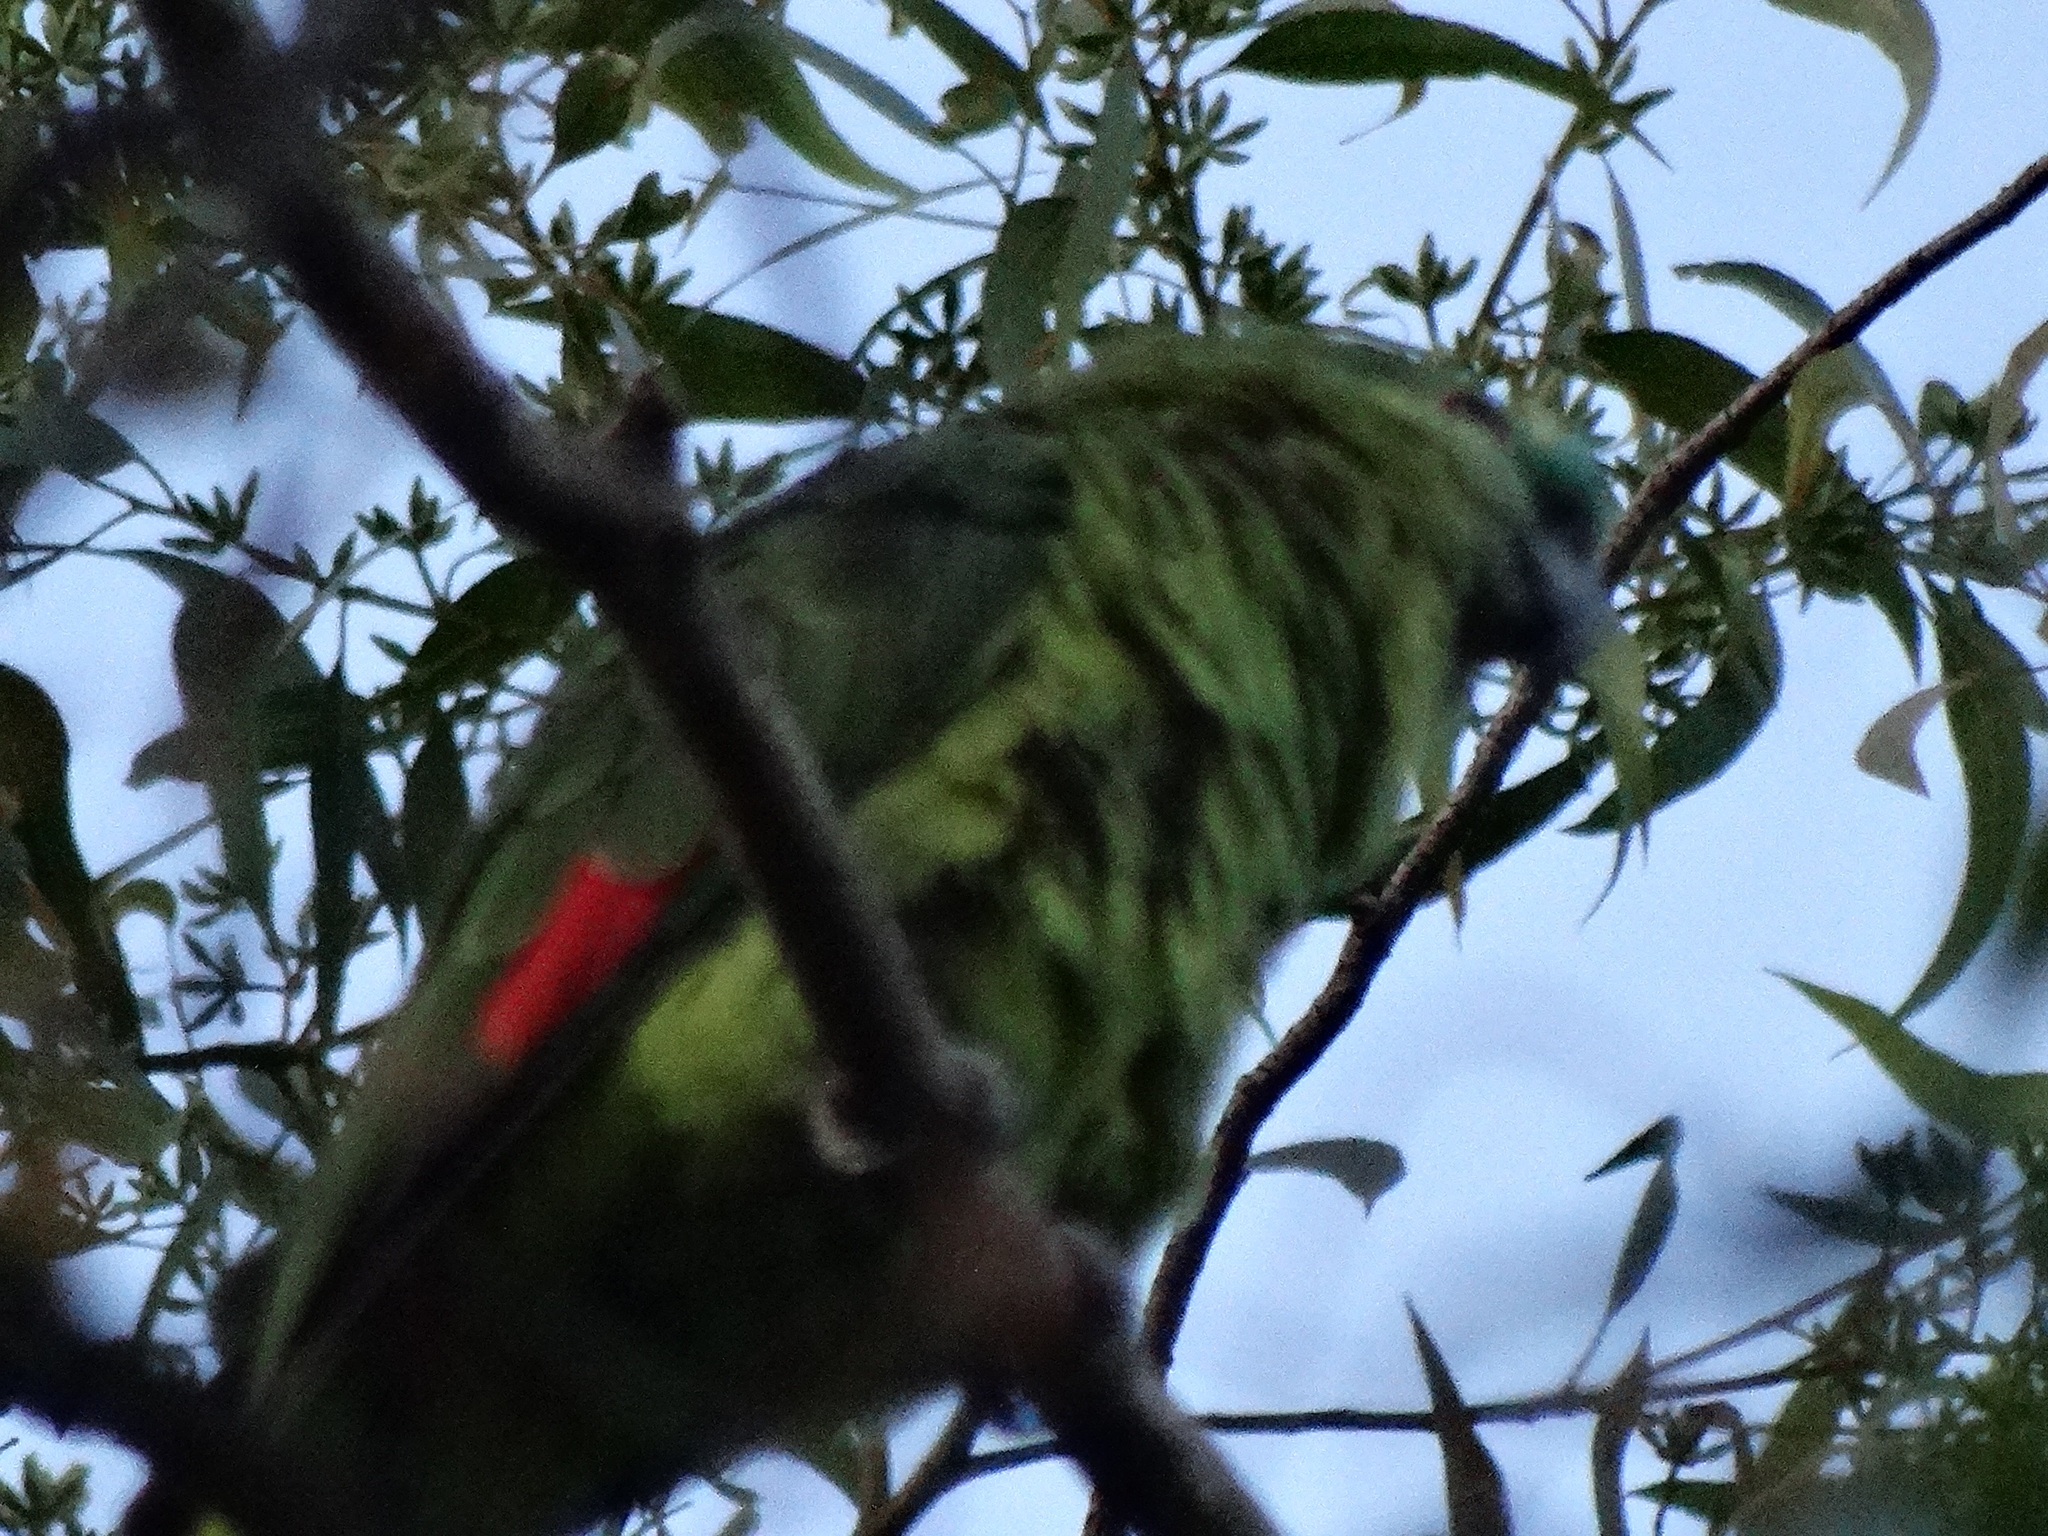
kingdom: Animalia
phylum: Chordata
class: Aves
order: Psittaciformes
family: Psittacidae
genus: Amazona
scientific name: Amazona aestiva
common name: Turquoise-fronted amazon
